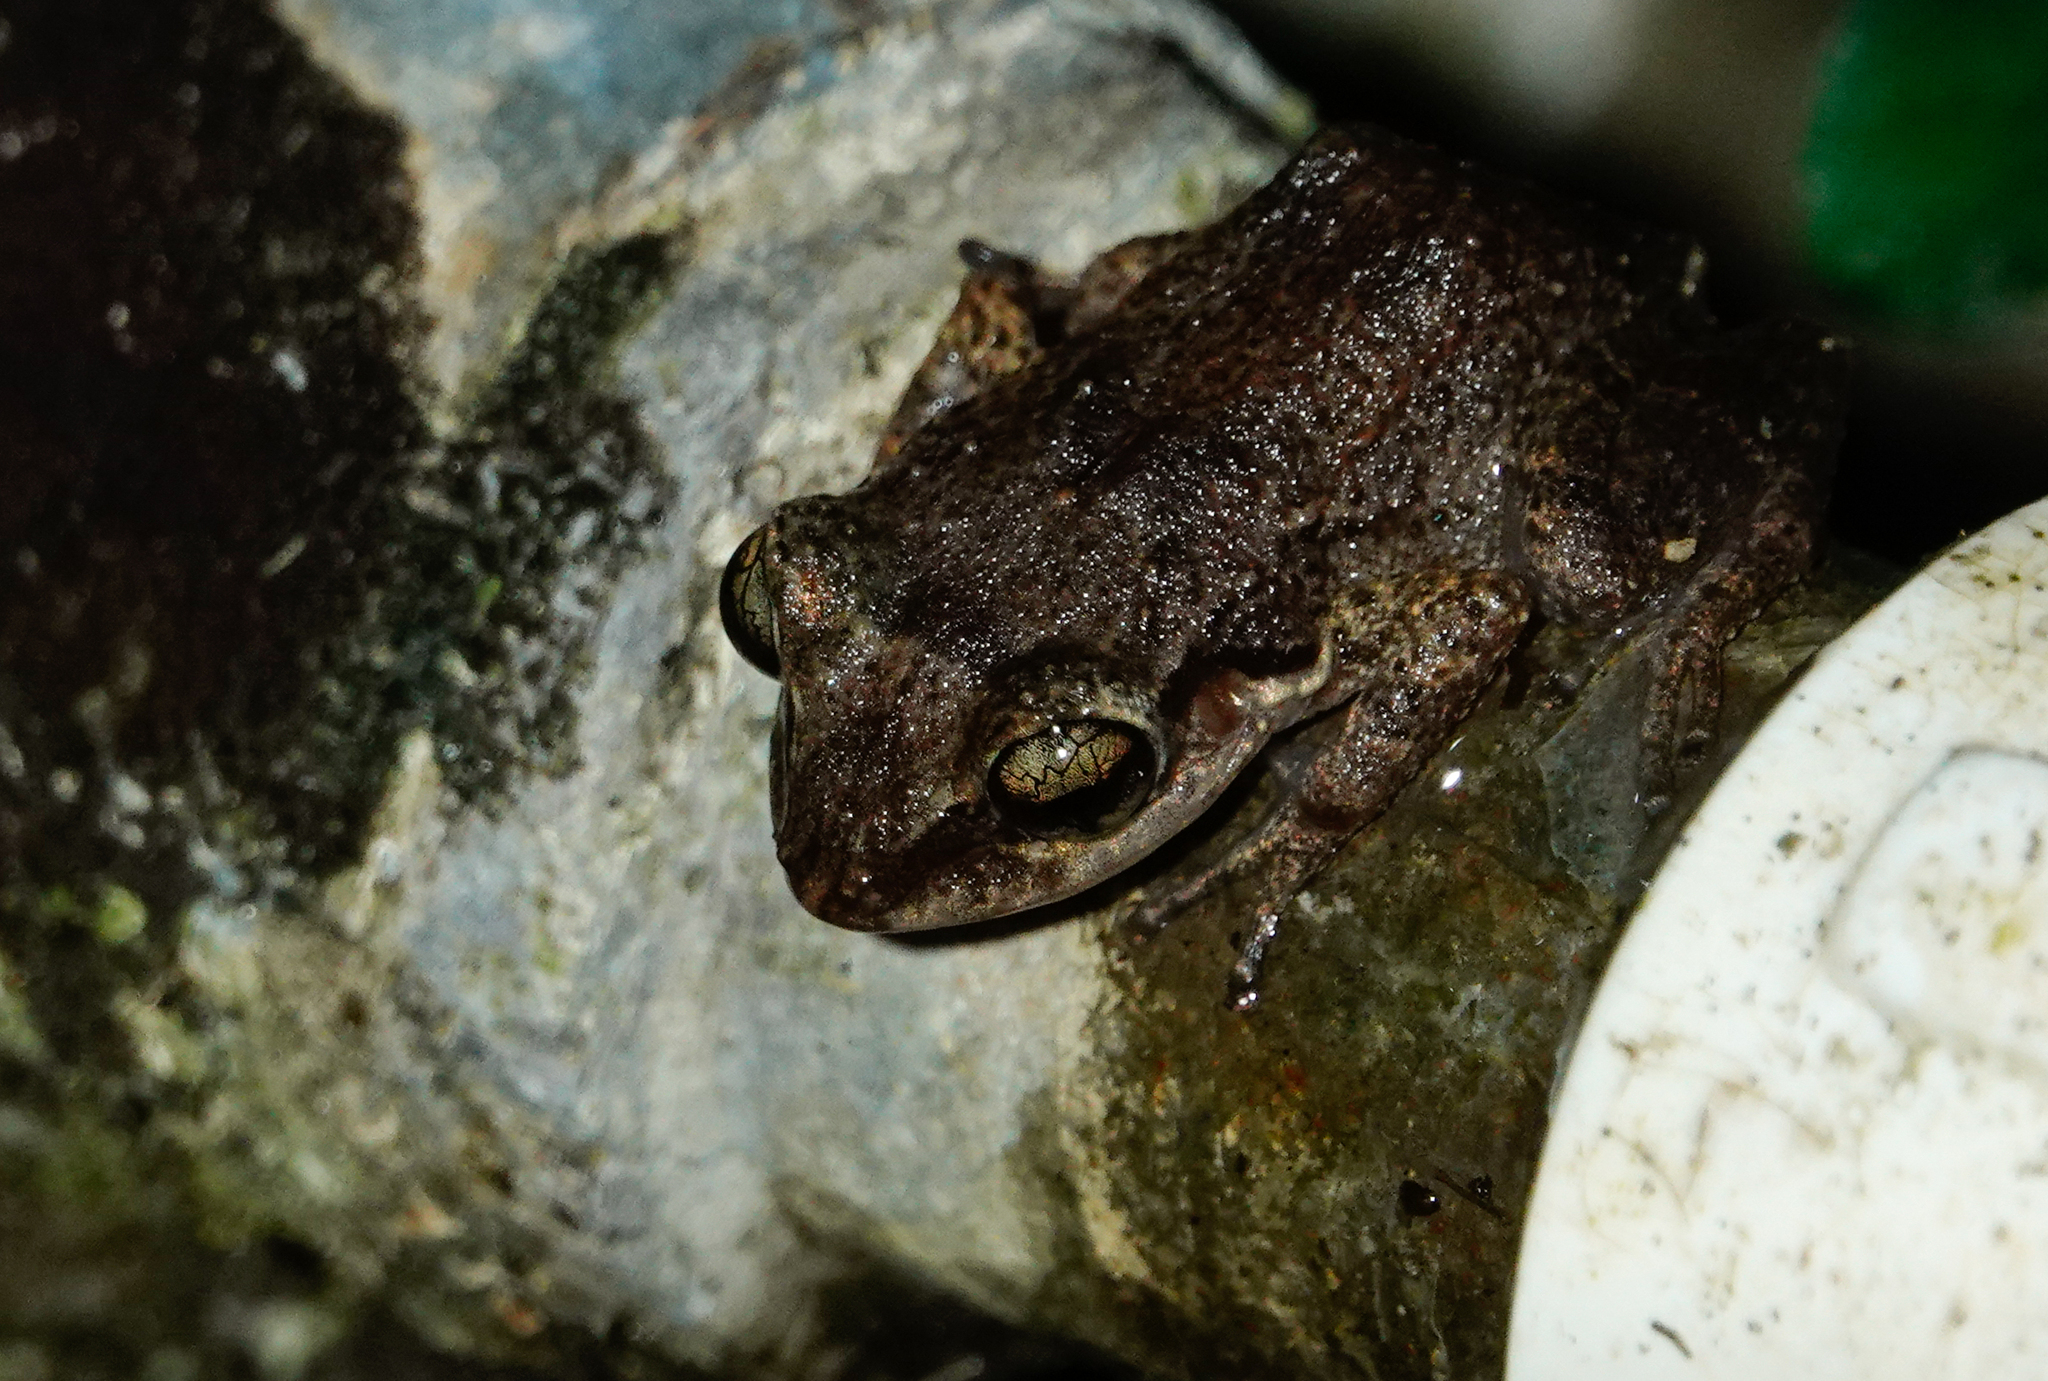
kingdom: Animalia
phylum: Chordata
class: Amphibia
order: Anura
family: Eleutherodactylidae
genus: Eleutherodactylus
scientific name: Eleutherodactylus johnstonei
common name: Johnstone's robber frog
